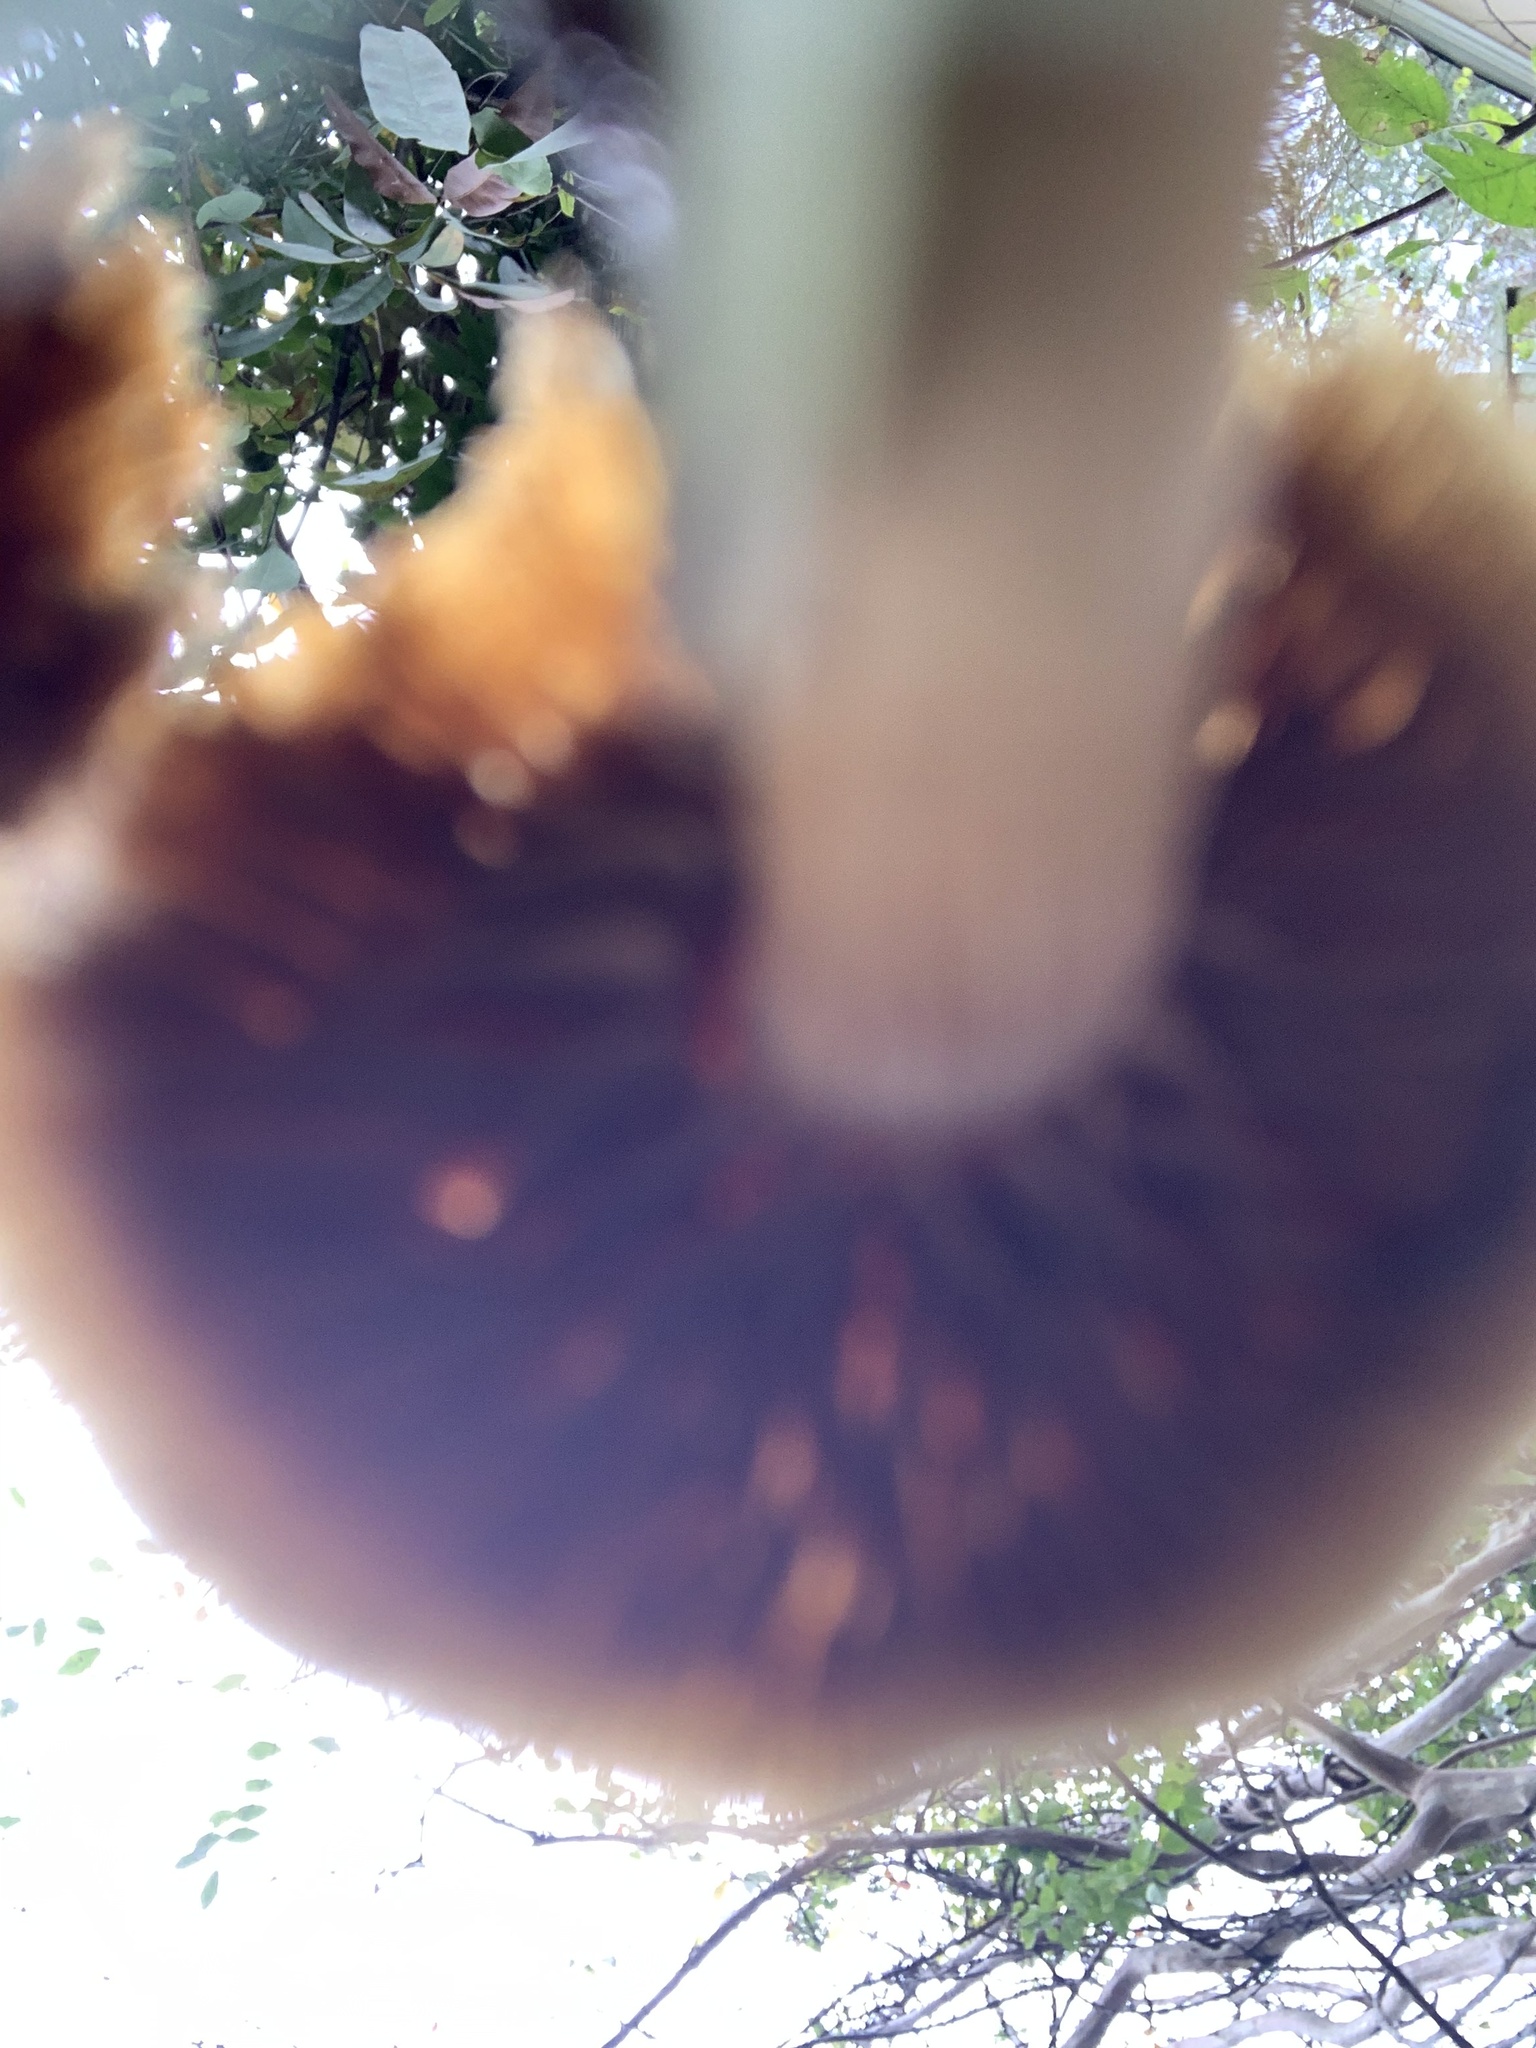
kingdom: Fungi
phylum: Basidiomycota
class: Agaricomycetes
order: Agaricales
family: Tubariaceae
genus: Tubaria
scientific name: Tubaria furfuracea
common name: Scurfy twiglet
